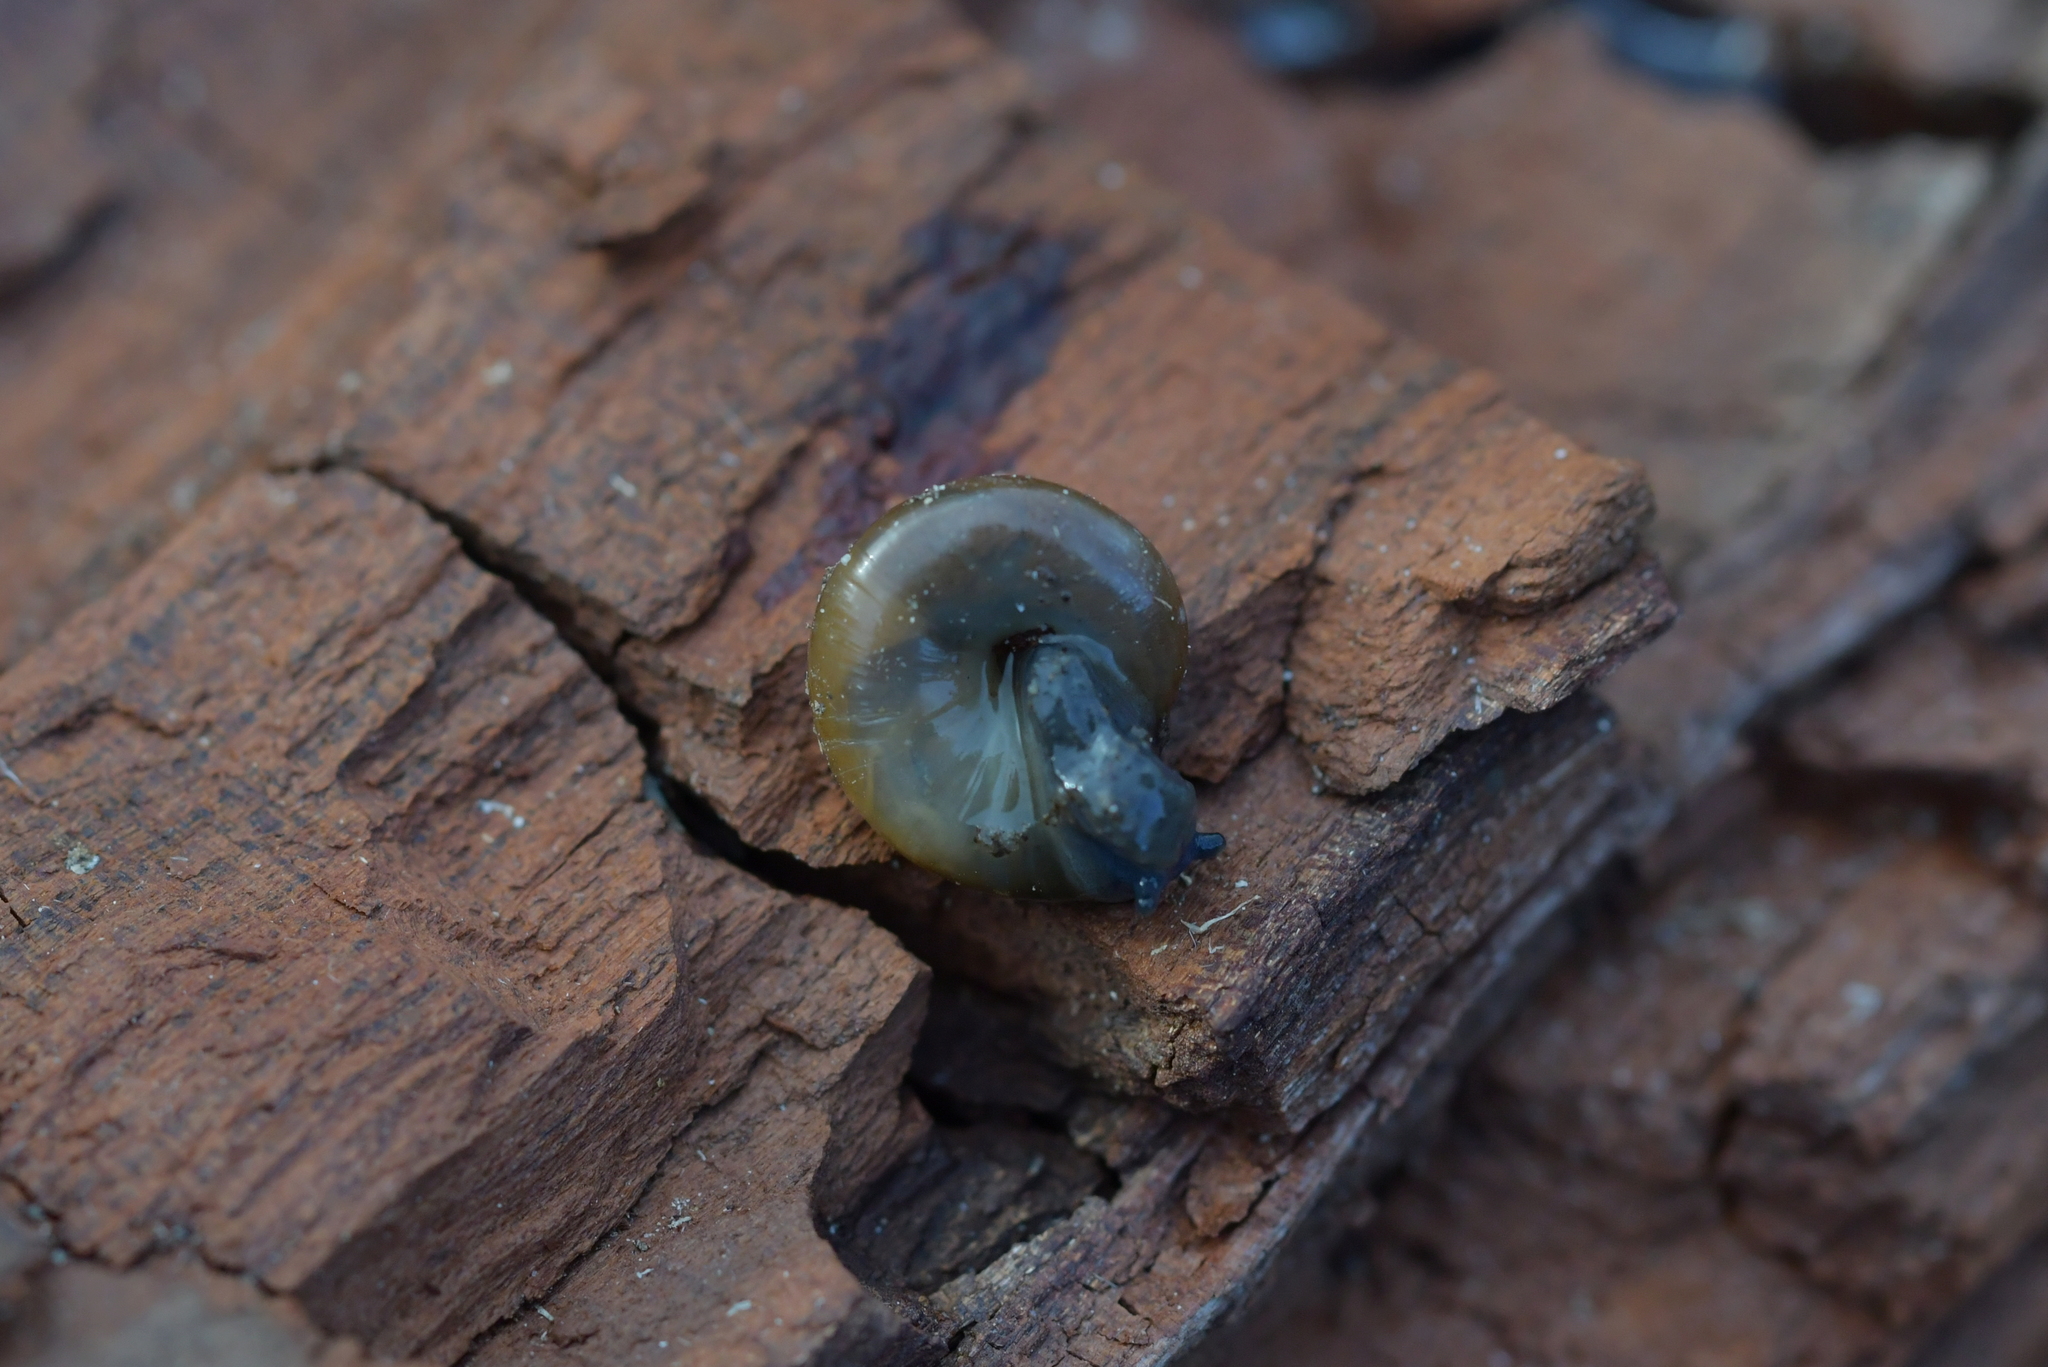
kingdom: Animalia
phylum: Mollusca
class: Gastropoda
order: Stylommatophora
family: Oxychilidae
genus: Oxychilus
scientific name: Oxychilus
